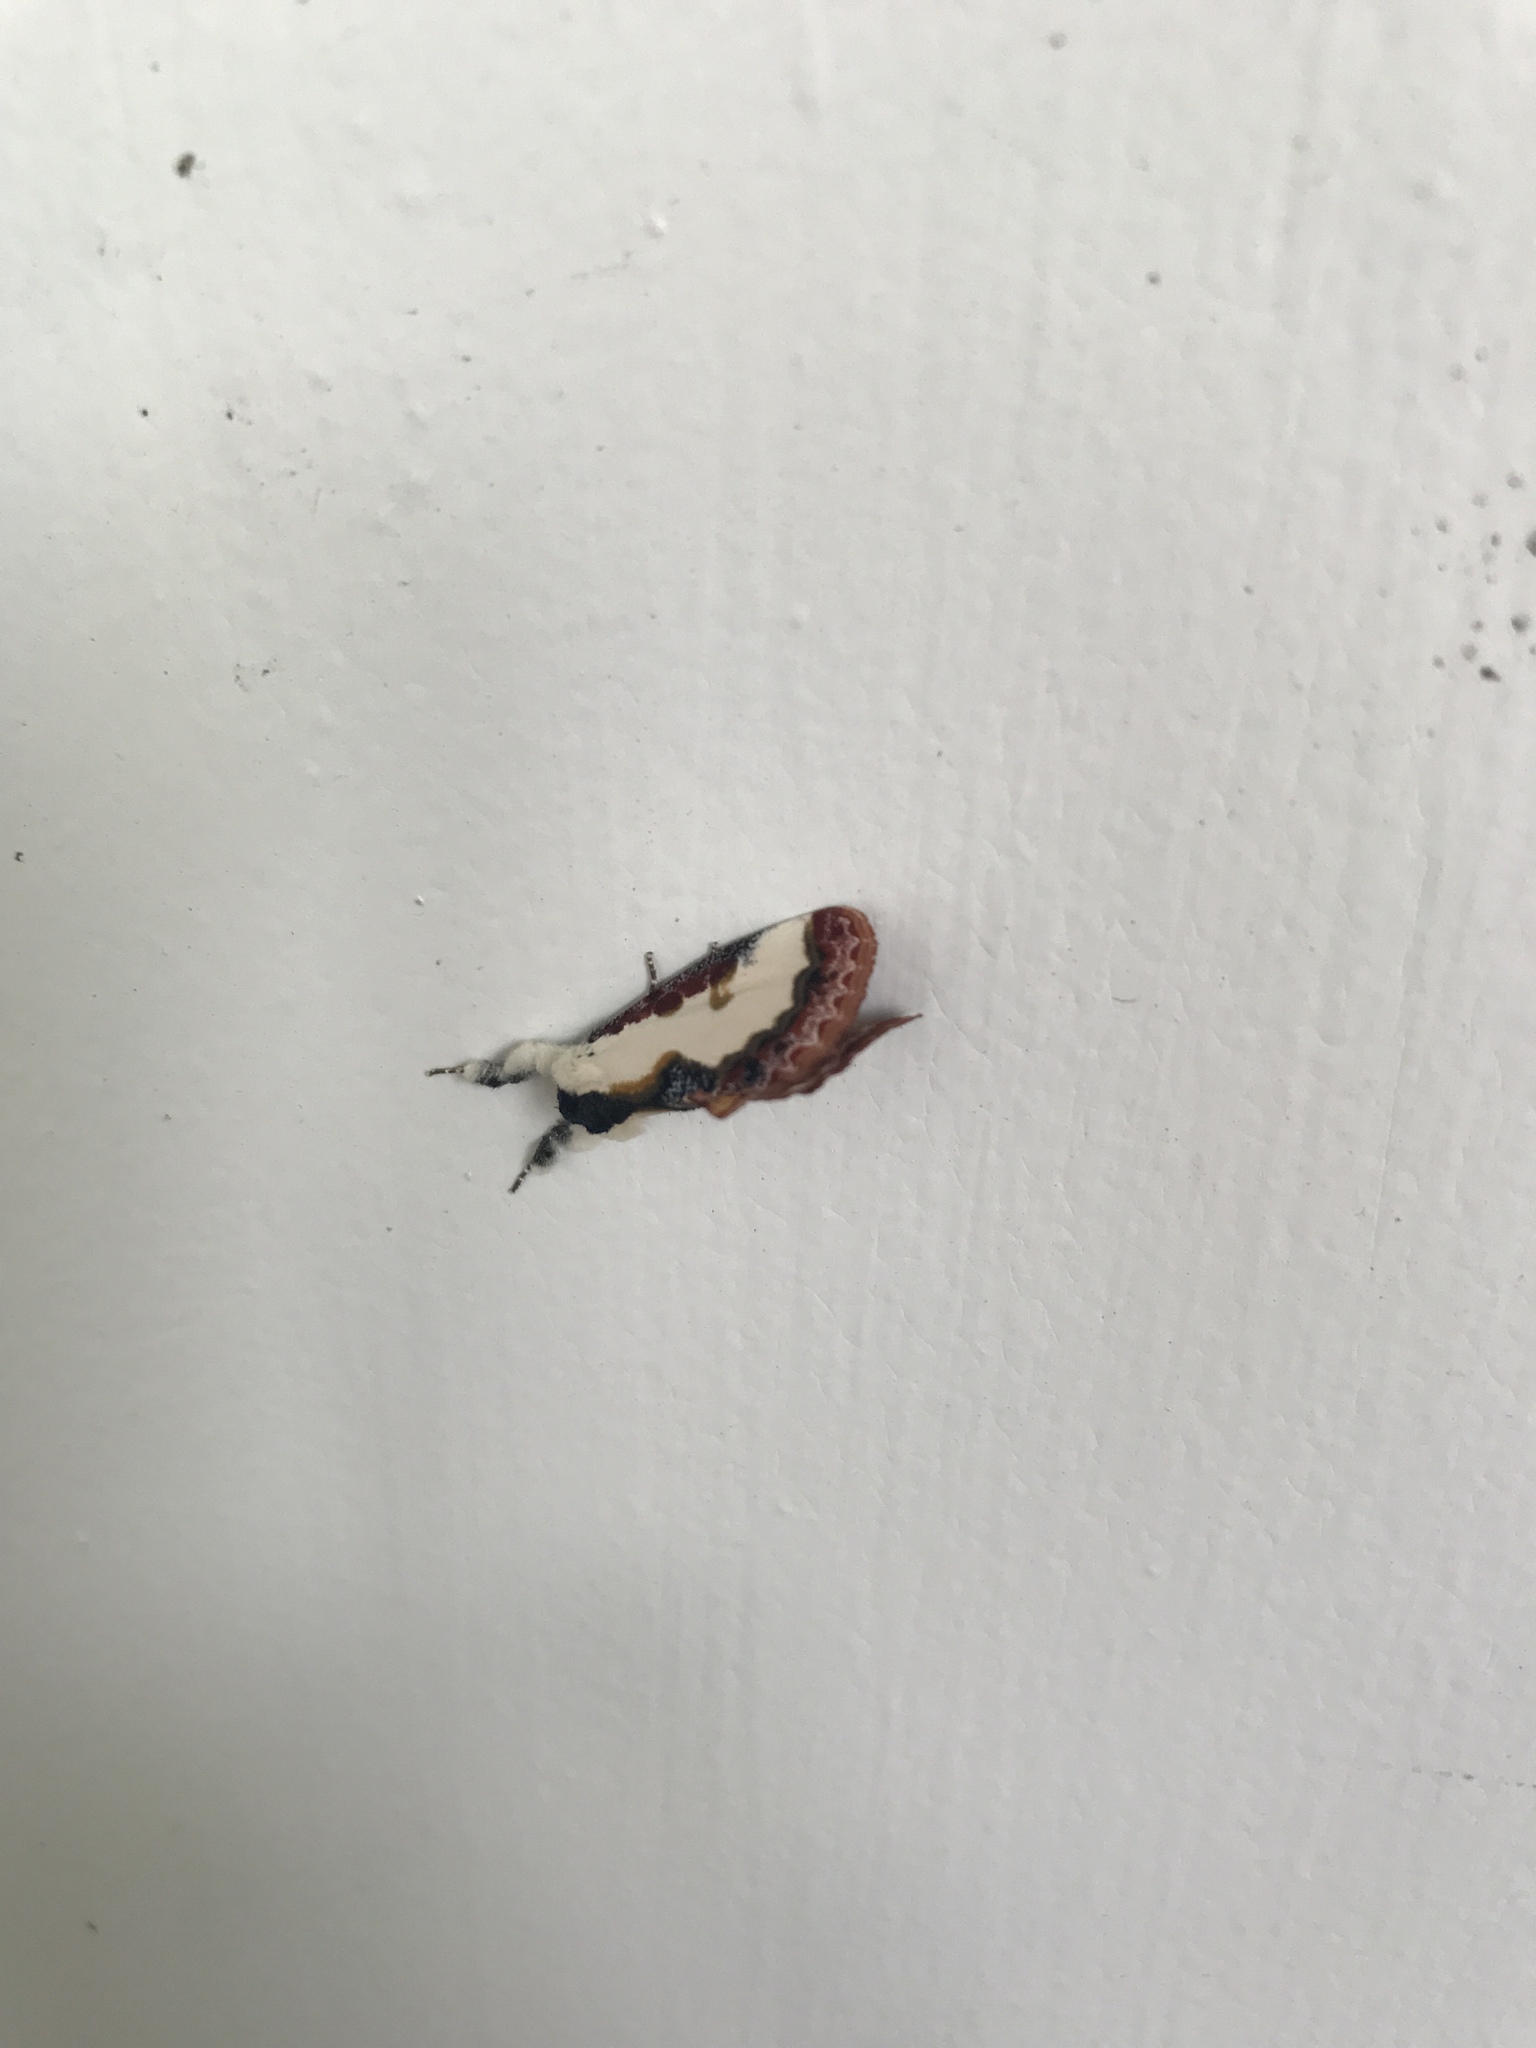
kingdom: Animalia
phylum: Arthropoda
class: Insecta
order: Lepidoptera
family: Noctuidae
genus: Eudryas
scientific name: Eudryas unio
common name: Pearly wood-nymph
